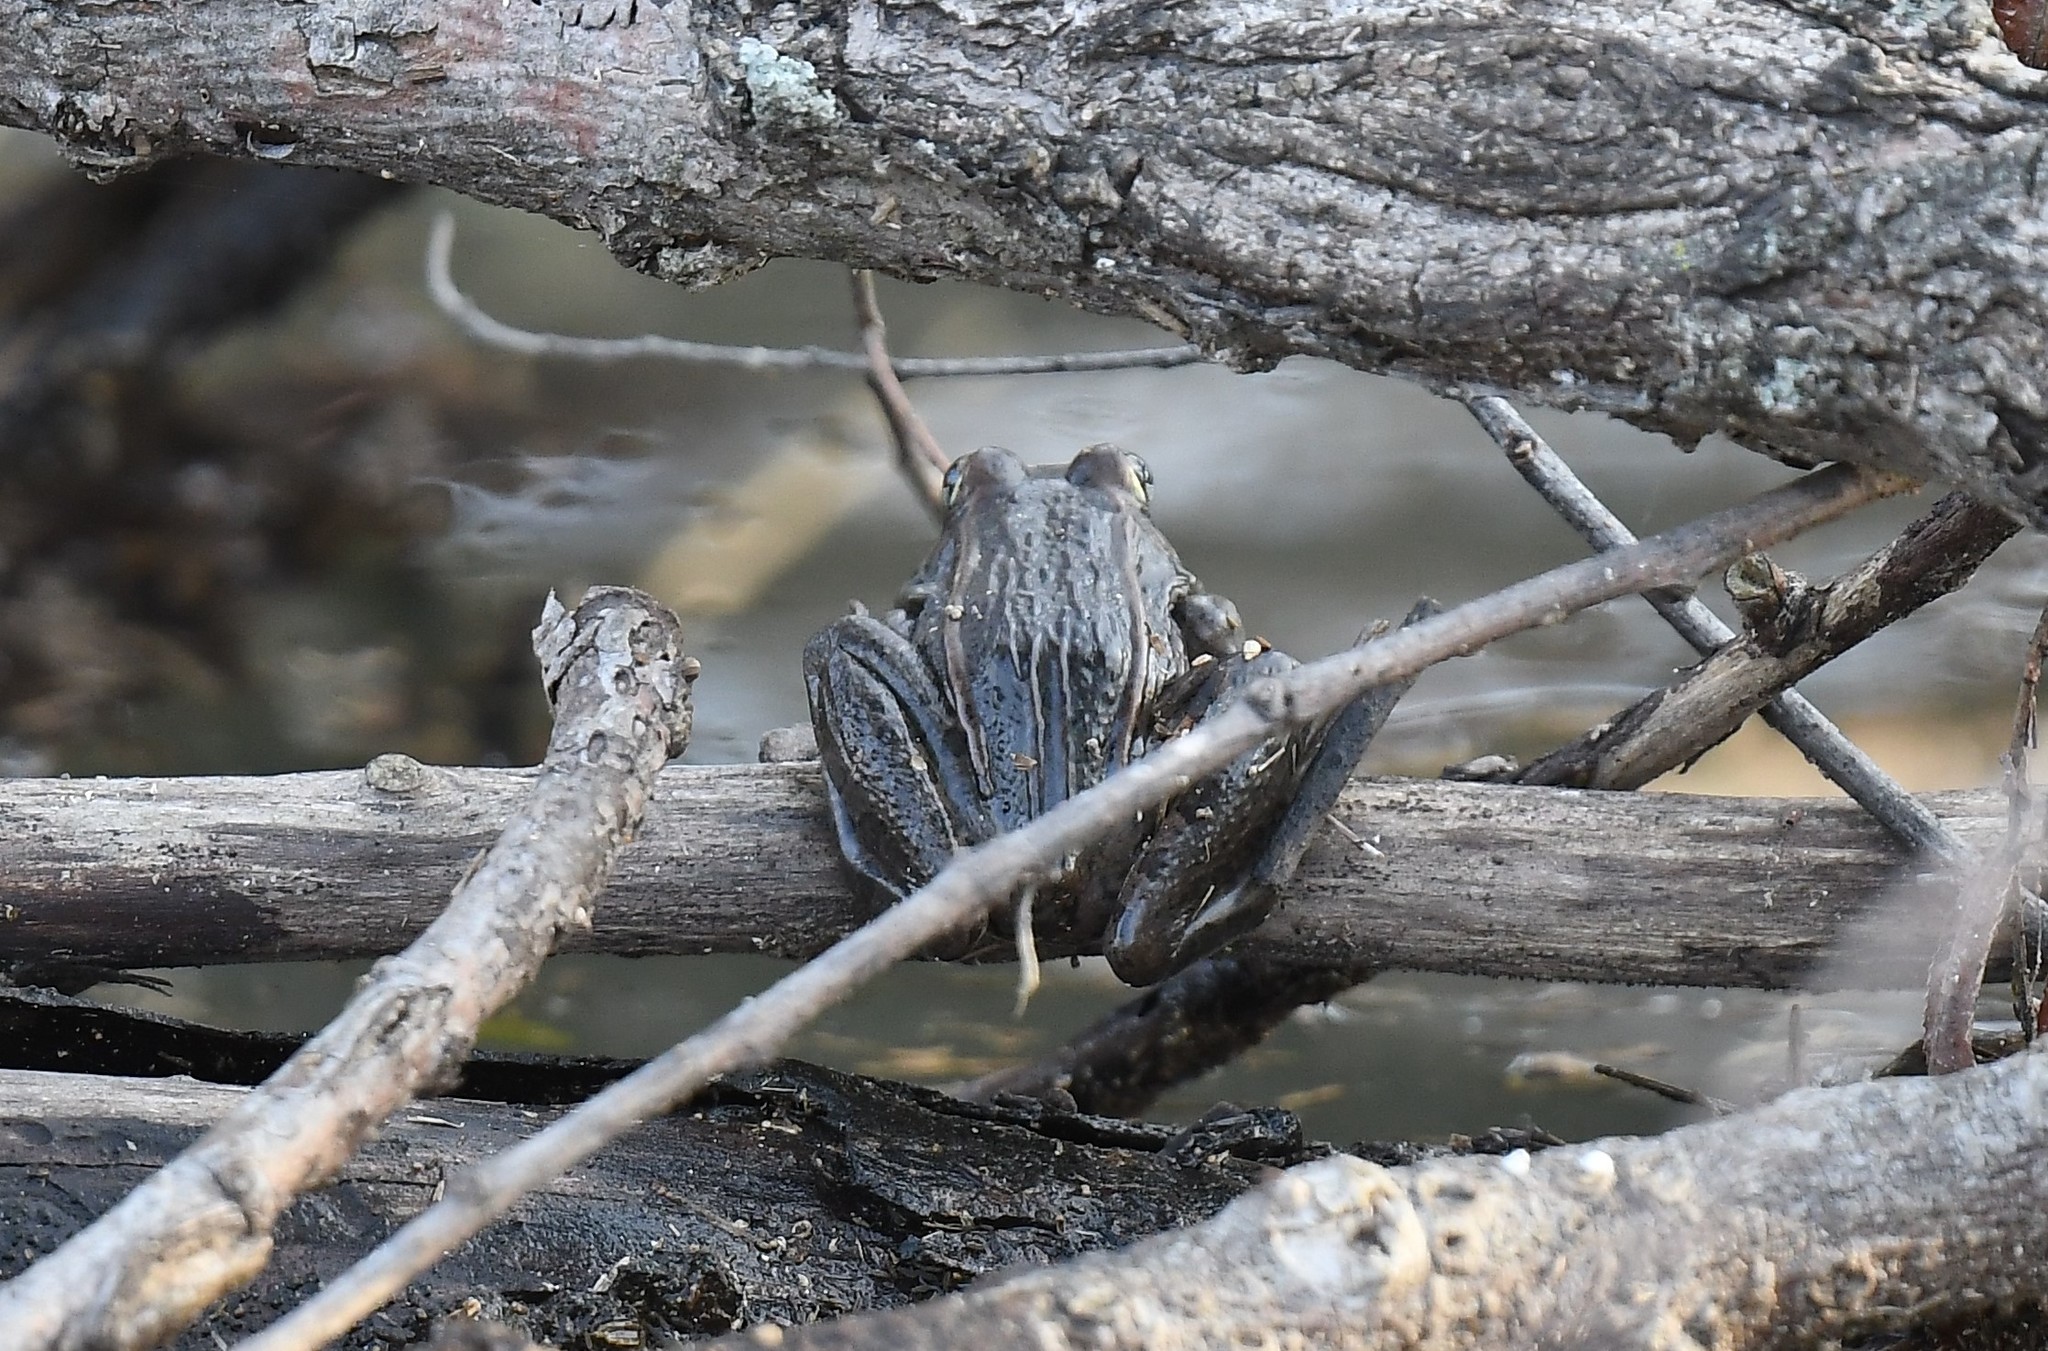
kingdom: Animalia
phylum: Chordata
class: Amphibia
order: Anura
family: Ranidae
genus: Lithobates
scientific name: Lithobates sphenocephalus
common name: Southern leopard frog
